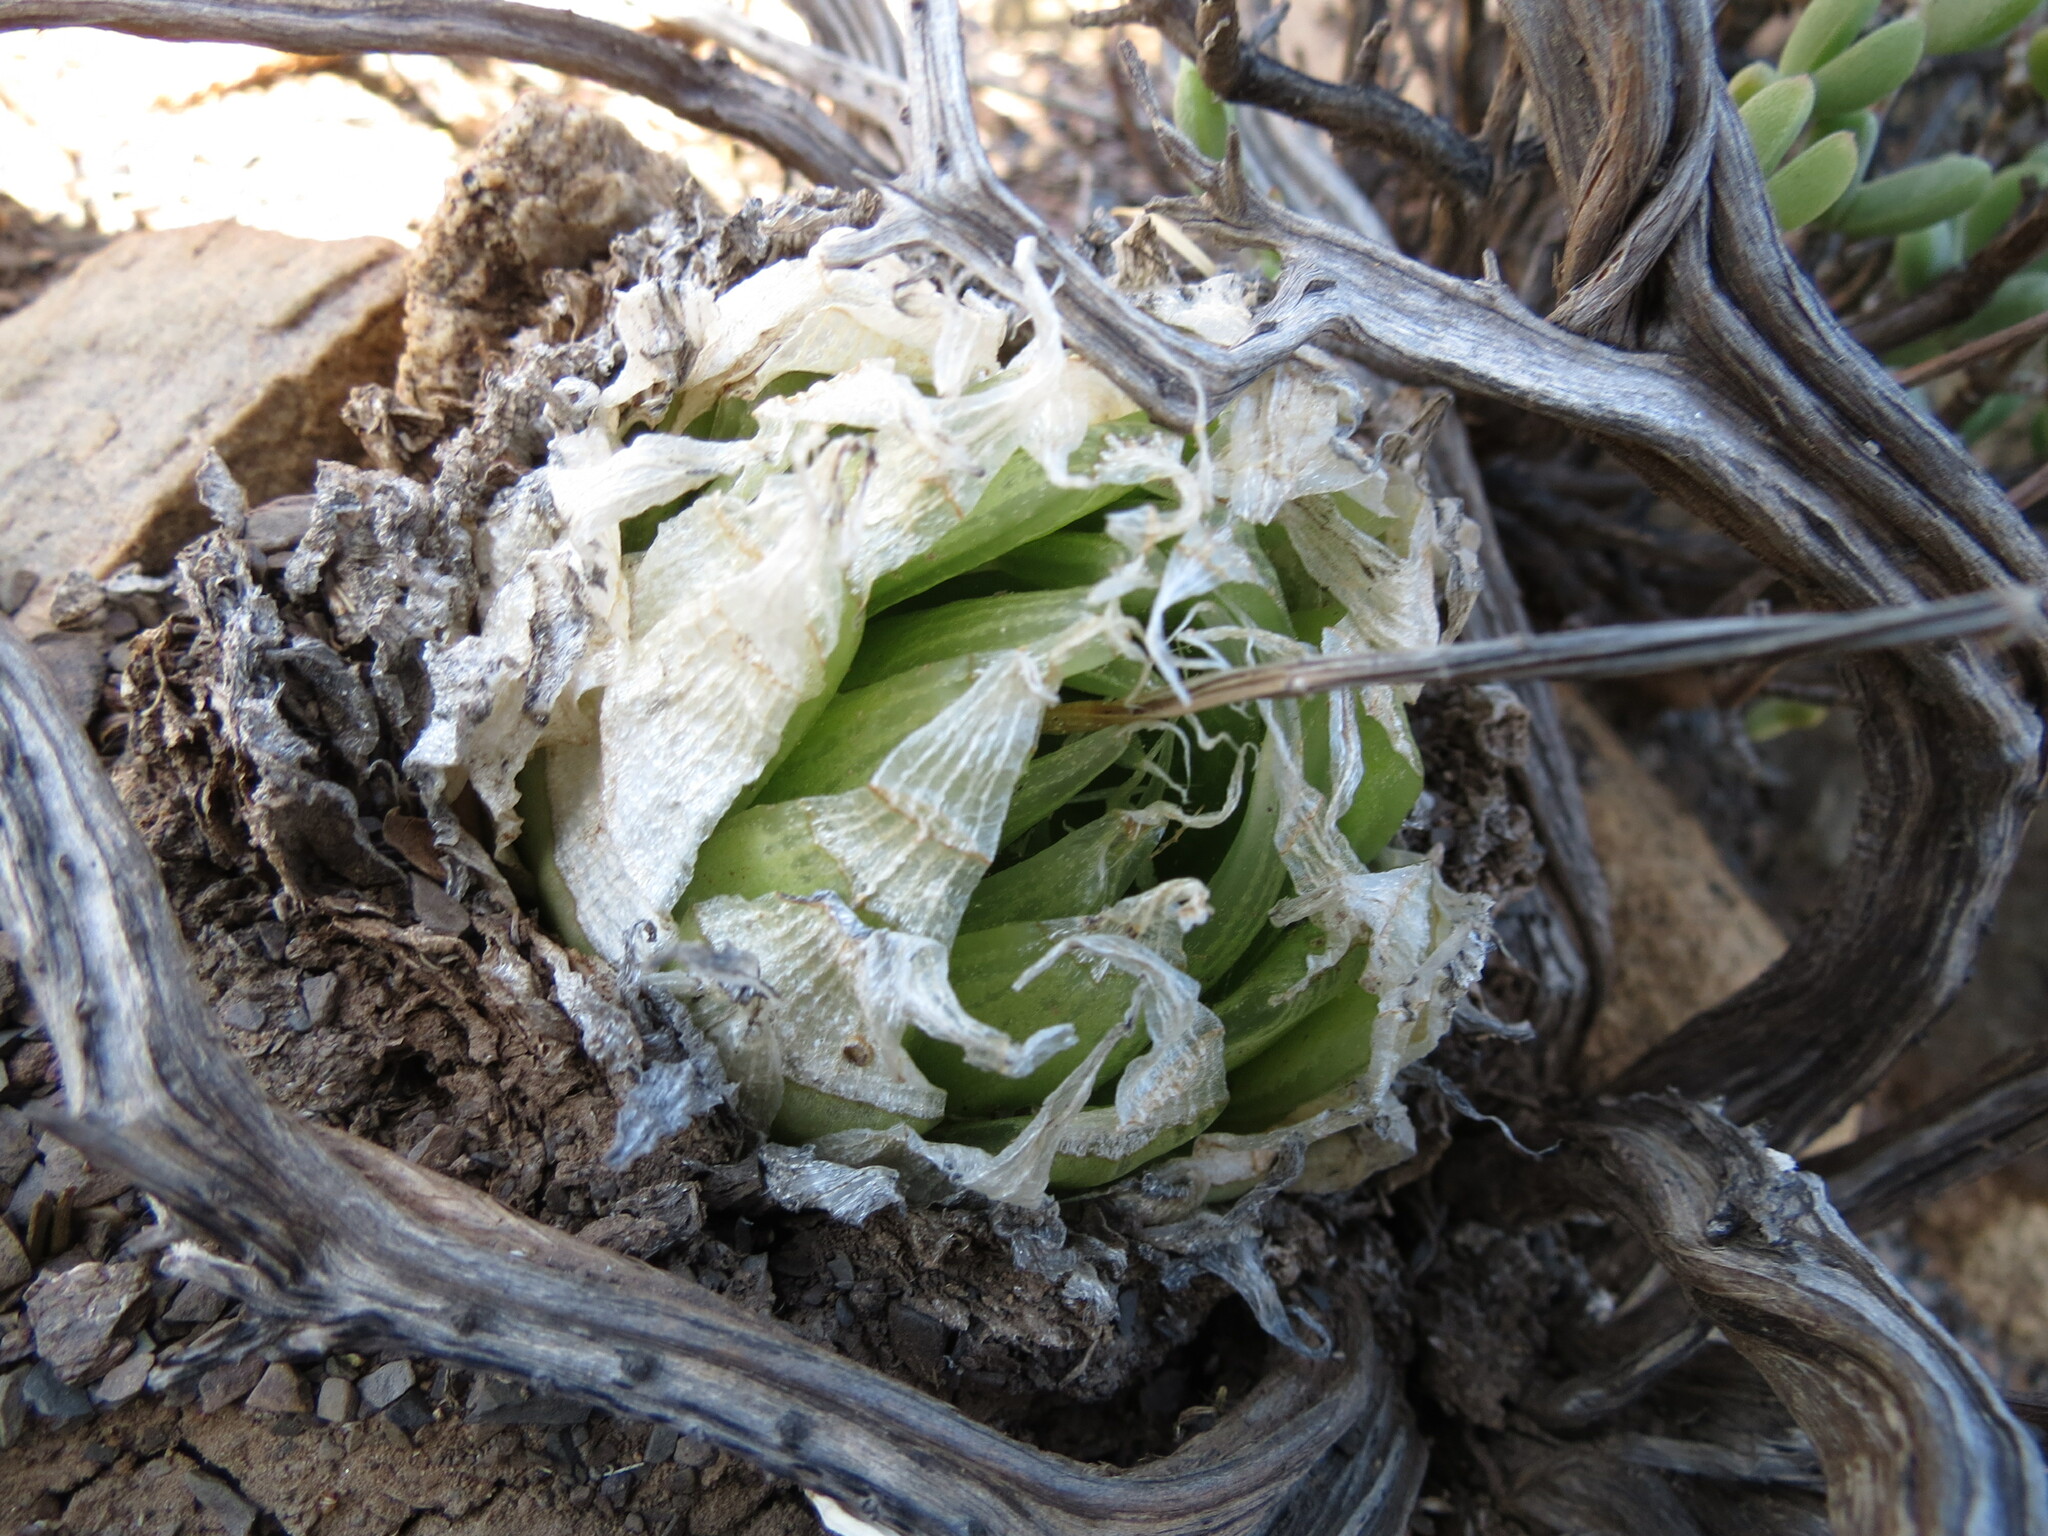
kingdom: Plantae
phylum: Tracheophyta
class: Liliopsida
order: Asparagales
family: Asphodelaceae
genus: Haworthia
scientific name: Haworthia lockwoodii
